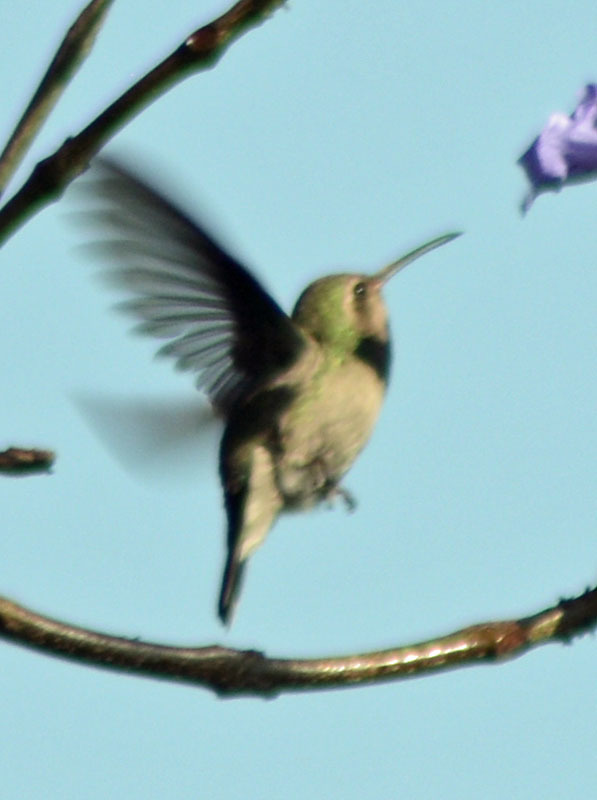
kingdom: Animalia
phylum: Chordata
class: Aves
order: Apodiformes
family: Trochilidae
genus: Cynanthus
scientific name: Cynanthus latirostris
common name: Broad-billed hummingbird
